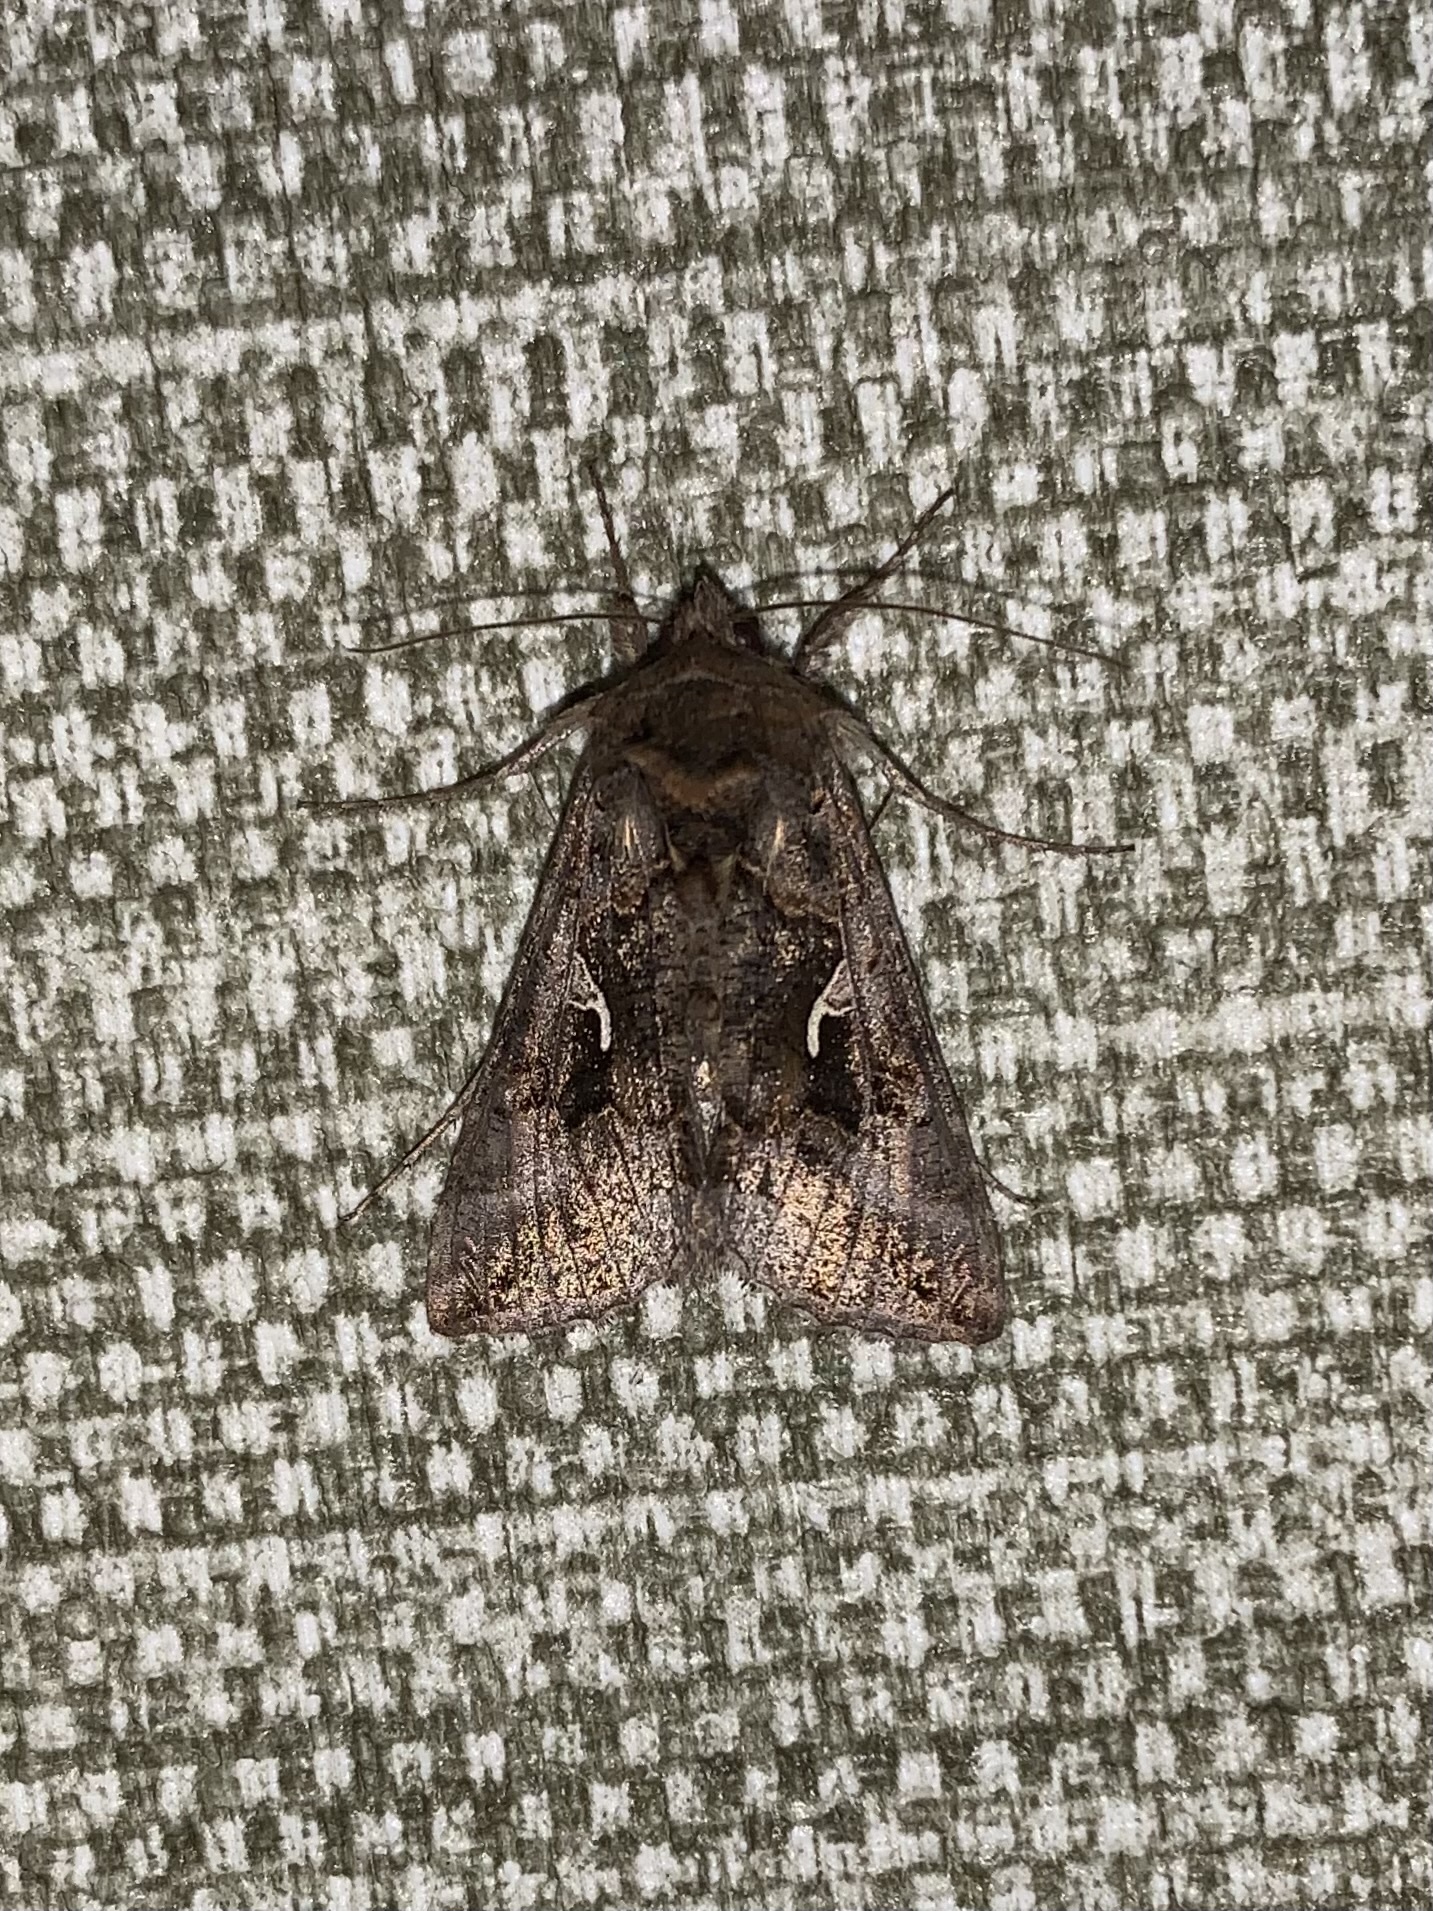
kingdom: Animalia
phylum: Arthropoda
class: Insecta
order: Lepidoptera
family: Noctuidae
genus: Autographa
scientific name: Autographa gamma
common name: Silver y
